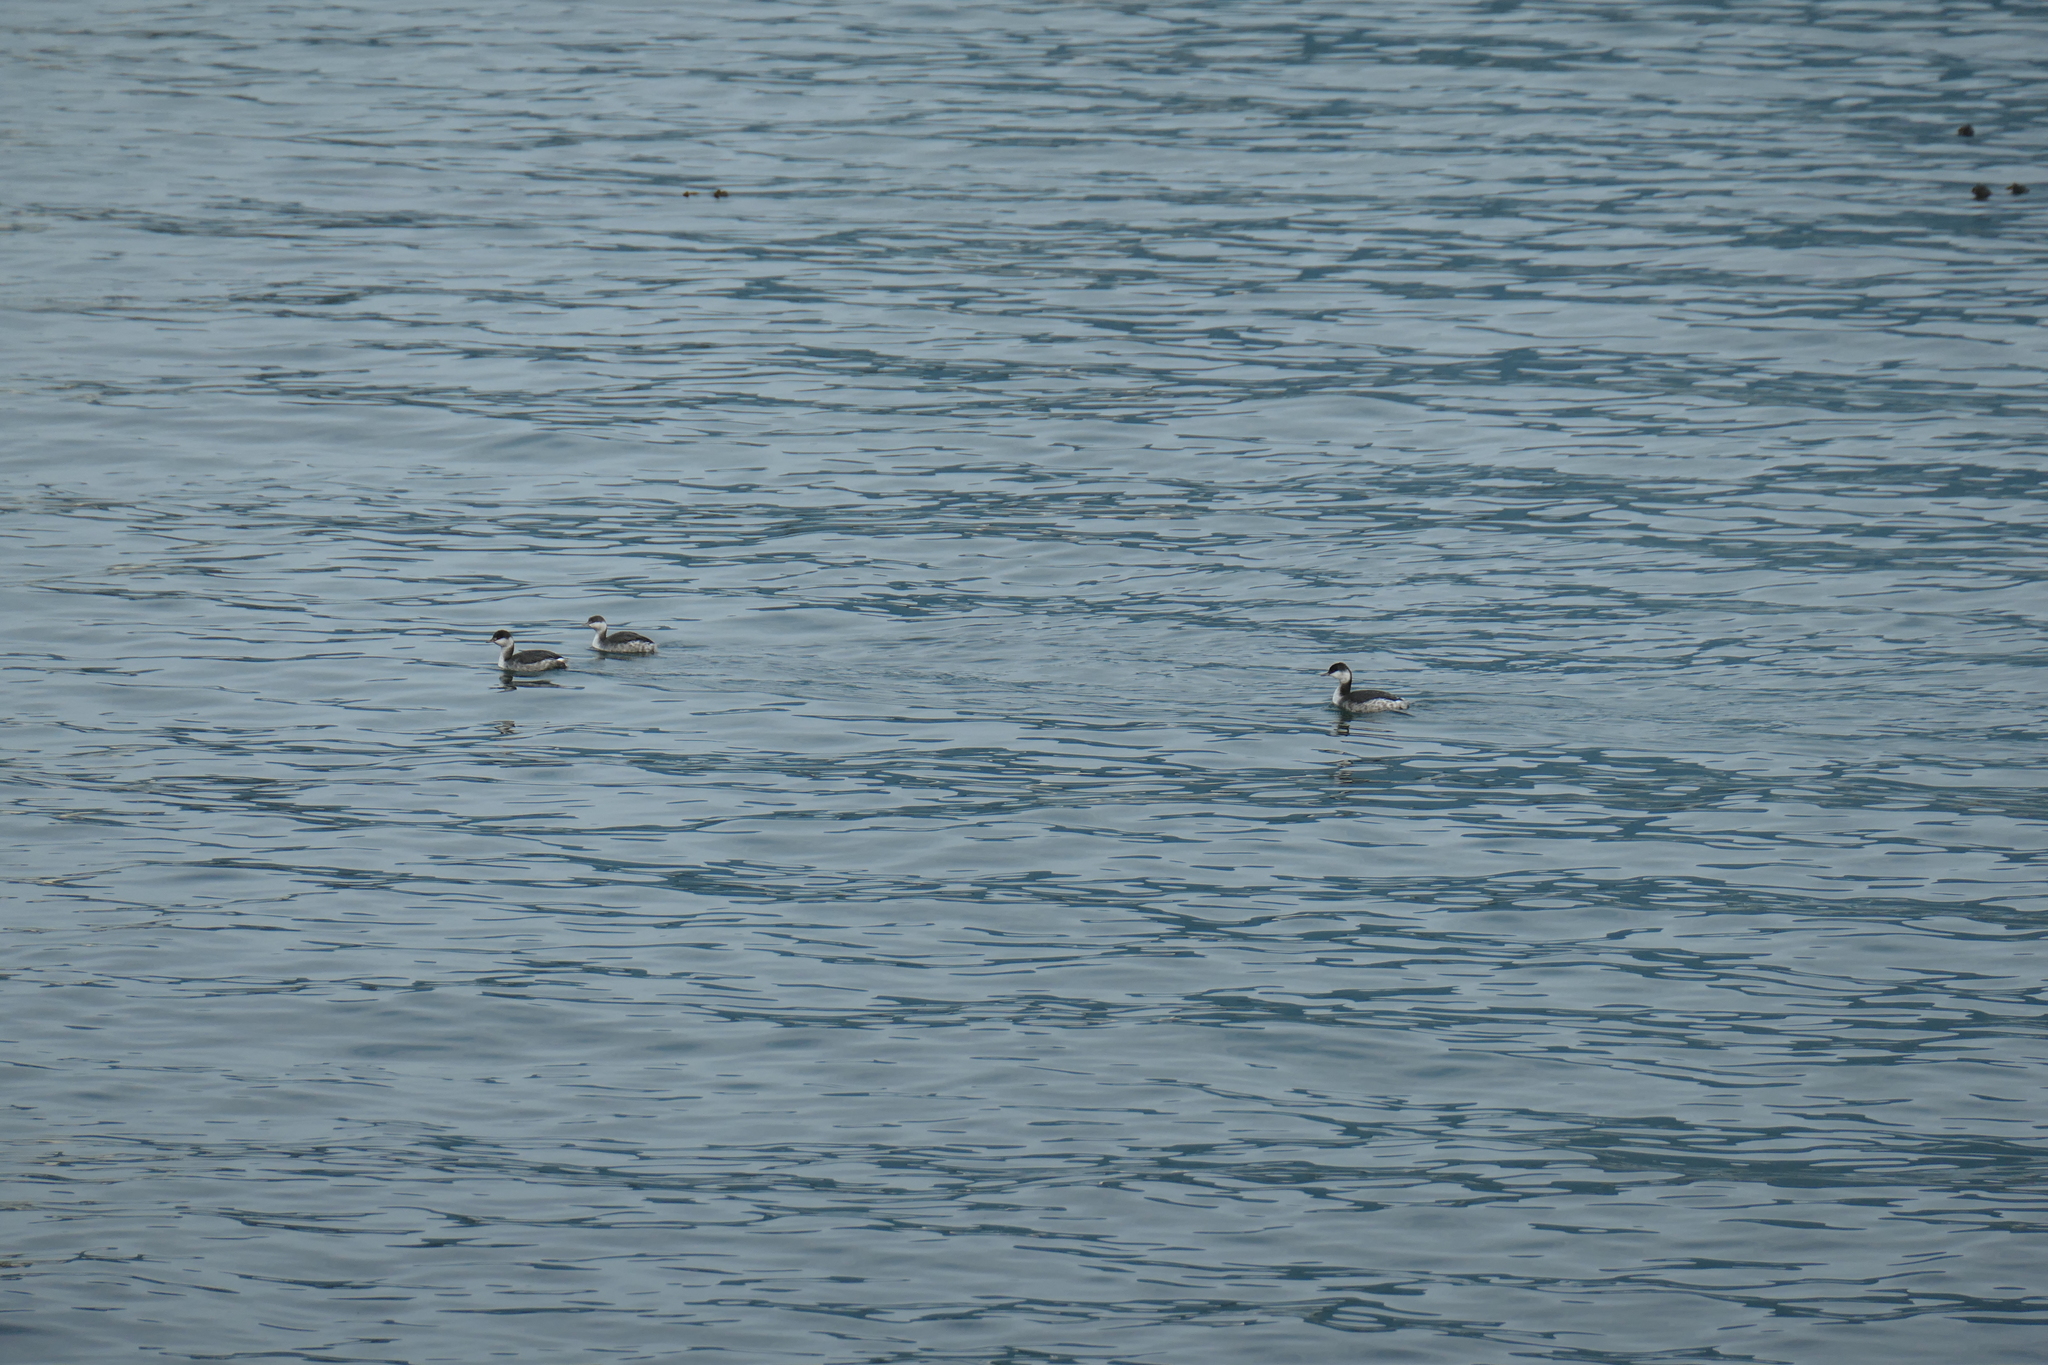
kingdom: Animalia
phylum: Chordata
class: Aves
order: Podicipediformes
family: Podicipedidae
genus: Podiceps
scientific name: Podiceps auritus
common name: Horned grebe
